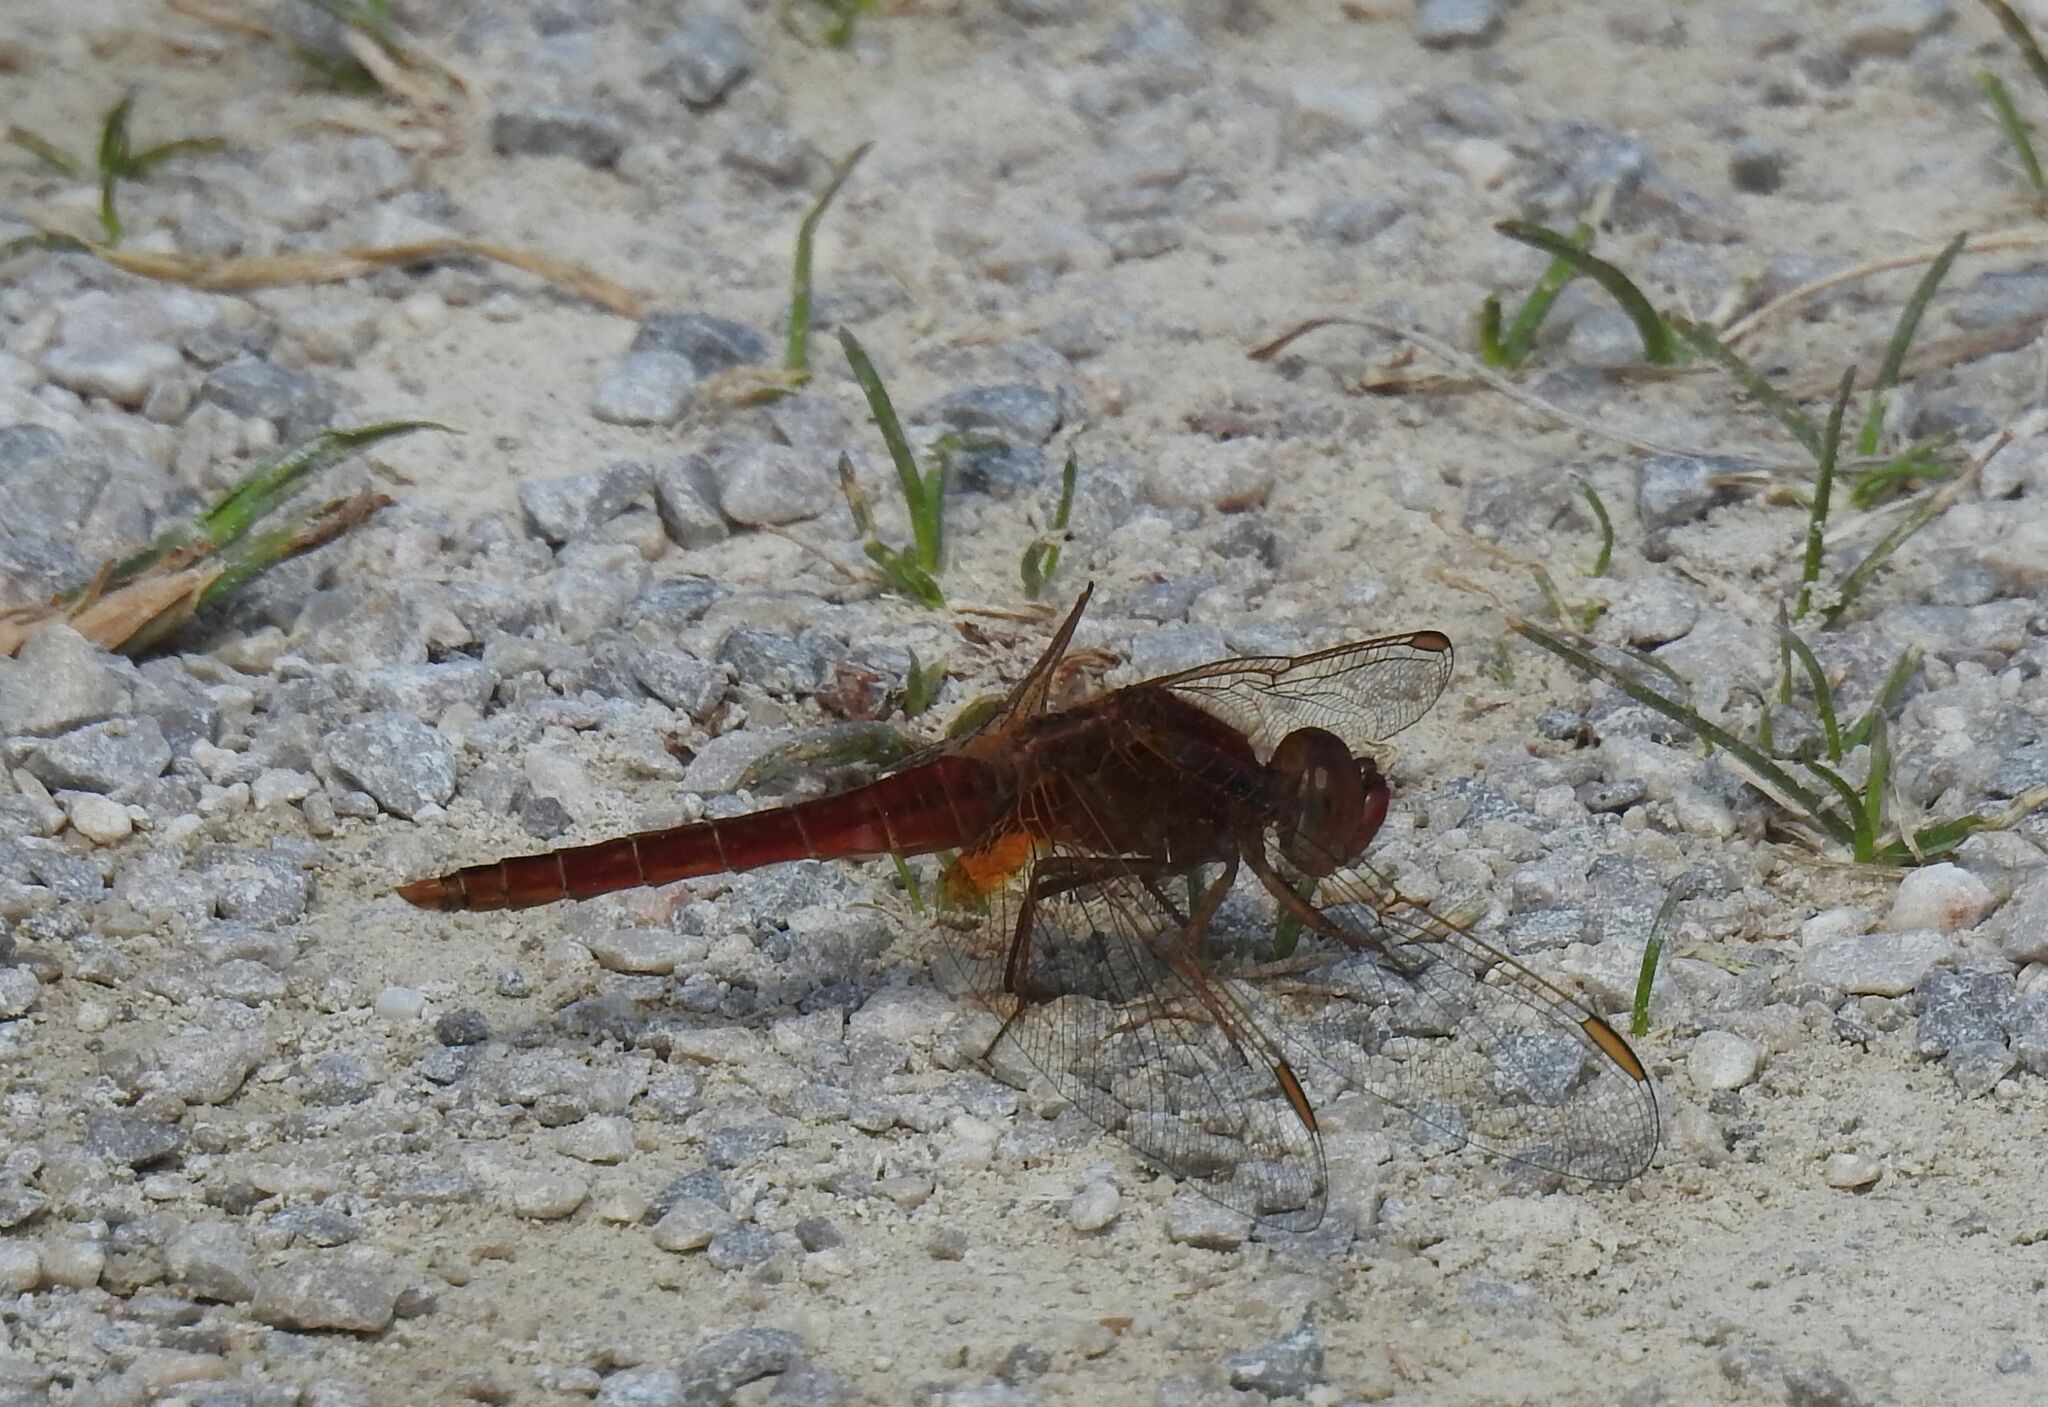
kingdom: Animalia
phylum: Arthropoda
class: Insecta
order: Odonata
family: Libellulidae
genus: Crocothemis
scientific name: Crocothemis erythraea
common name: Scarlet dragonfly
